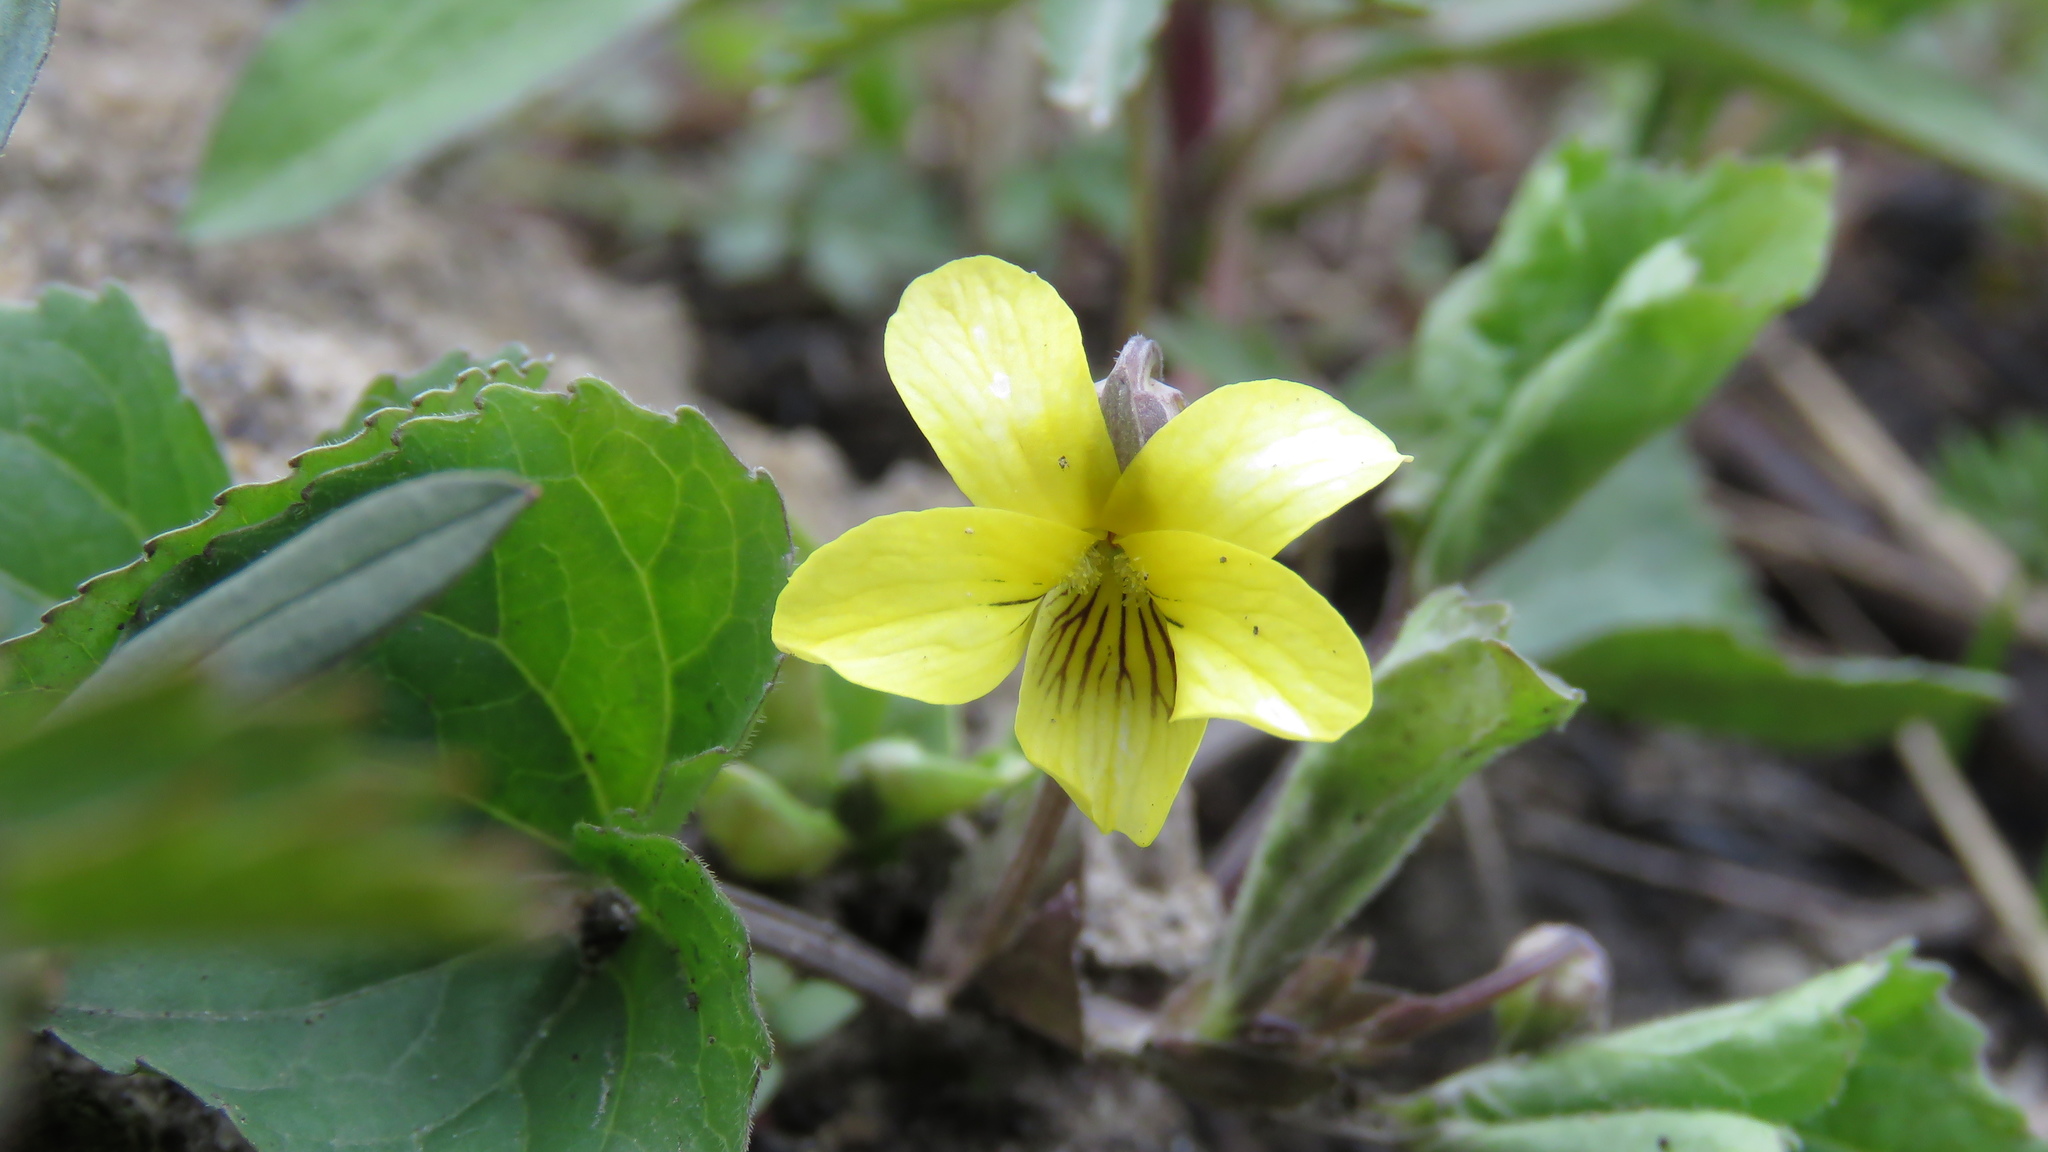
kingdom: Plantae
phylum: Tracheophyta
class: Magnoliopsida
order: Malpighiales
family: Violaceae
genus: Viola
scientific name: Viola eriocarpa
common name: Smooth yellow violet
